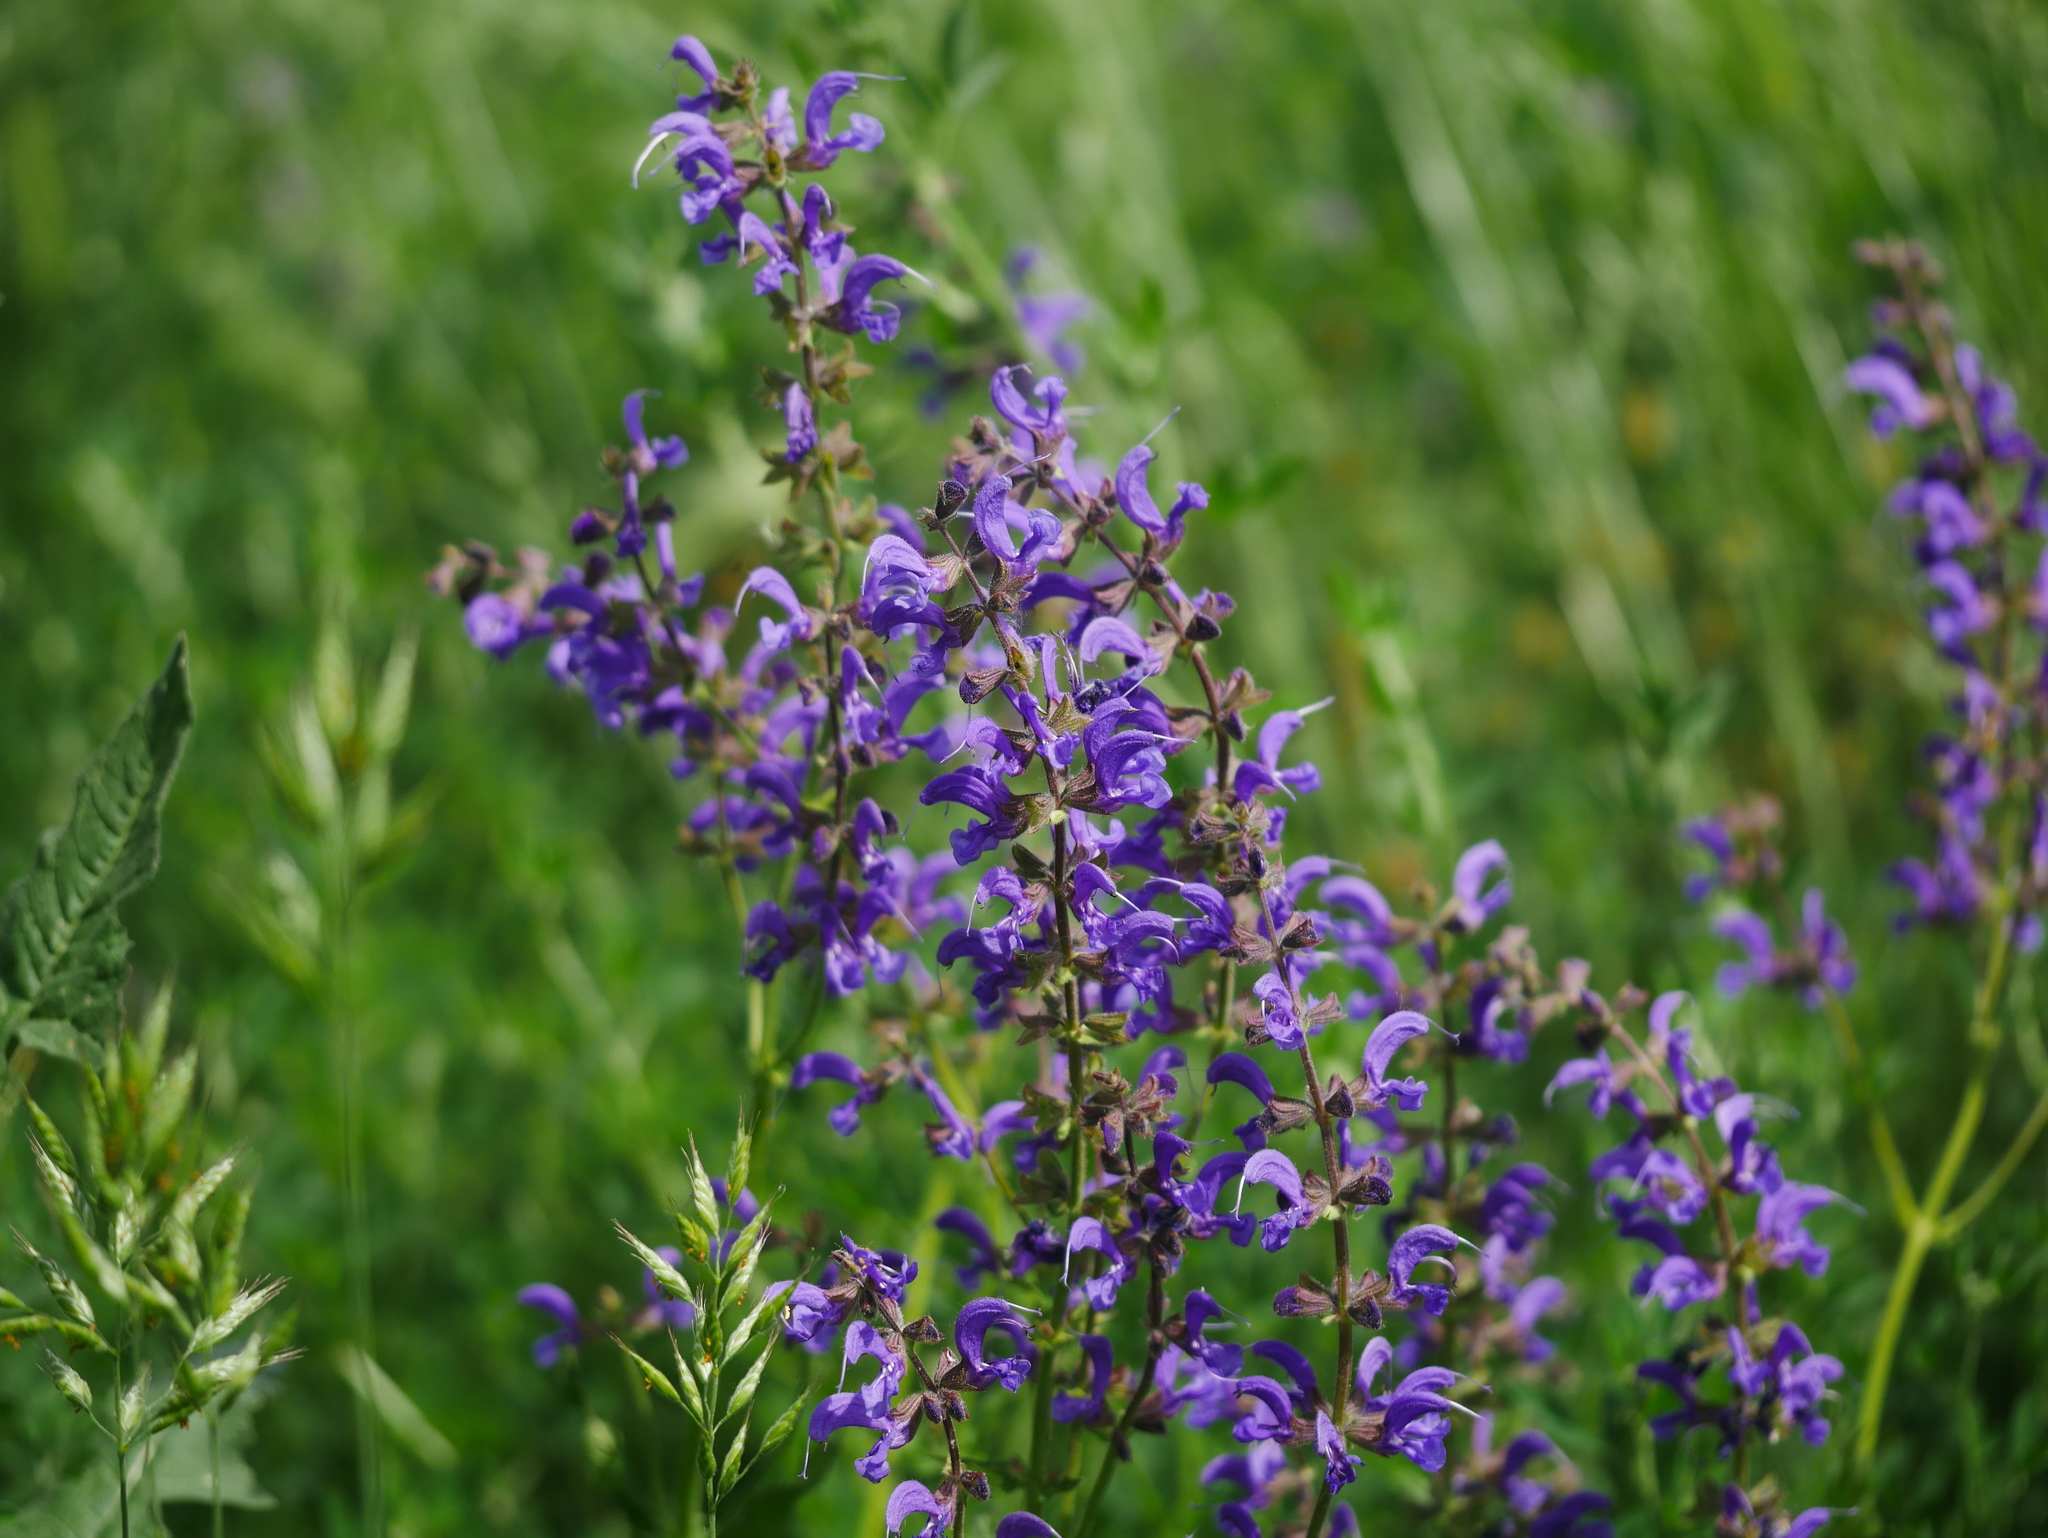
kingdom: Plantae
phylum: Tracheophyta
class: Magnoliopsida
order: Lamiales
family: Lamiaceae
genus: Salvia
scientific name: Salvia pratensis
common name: Meadow sage
